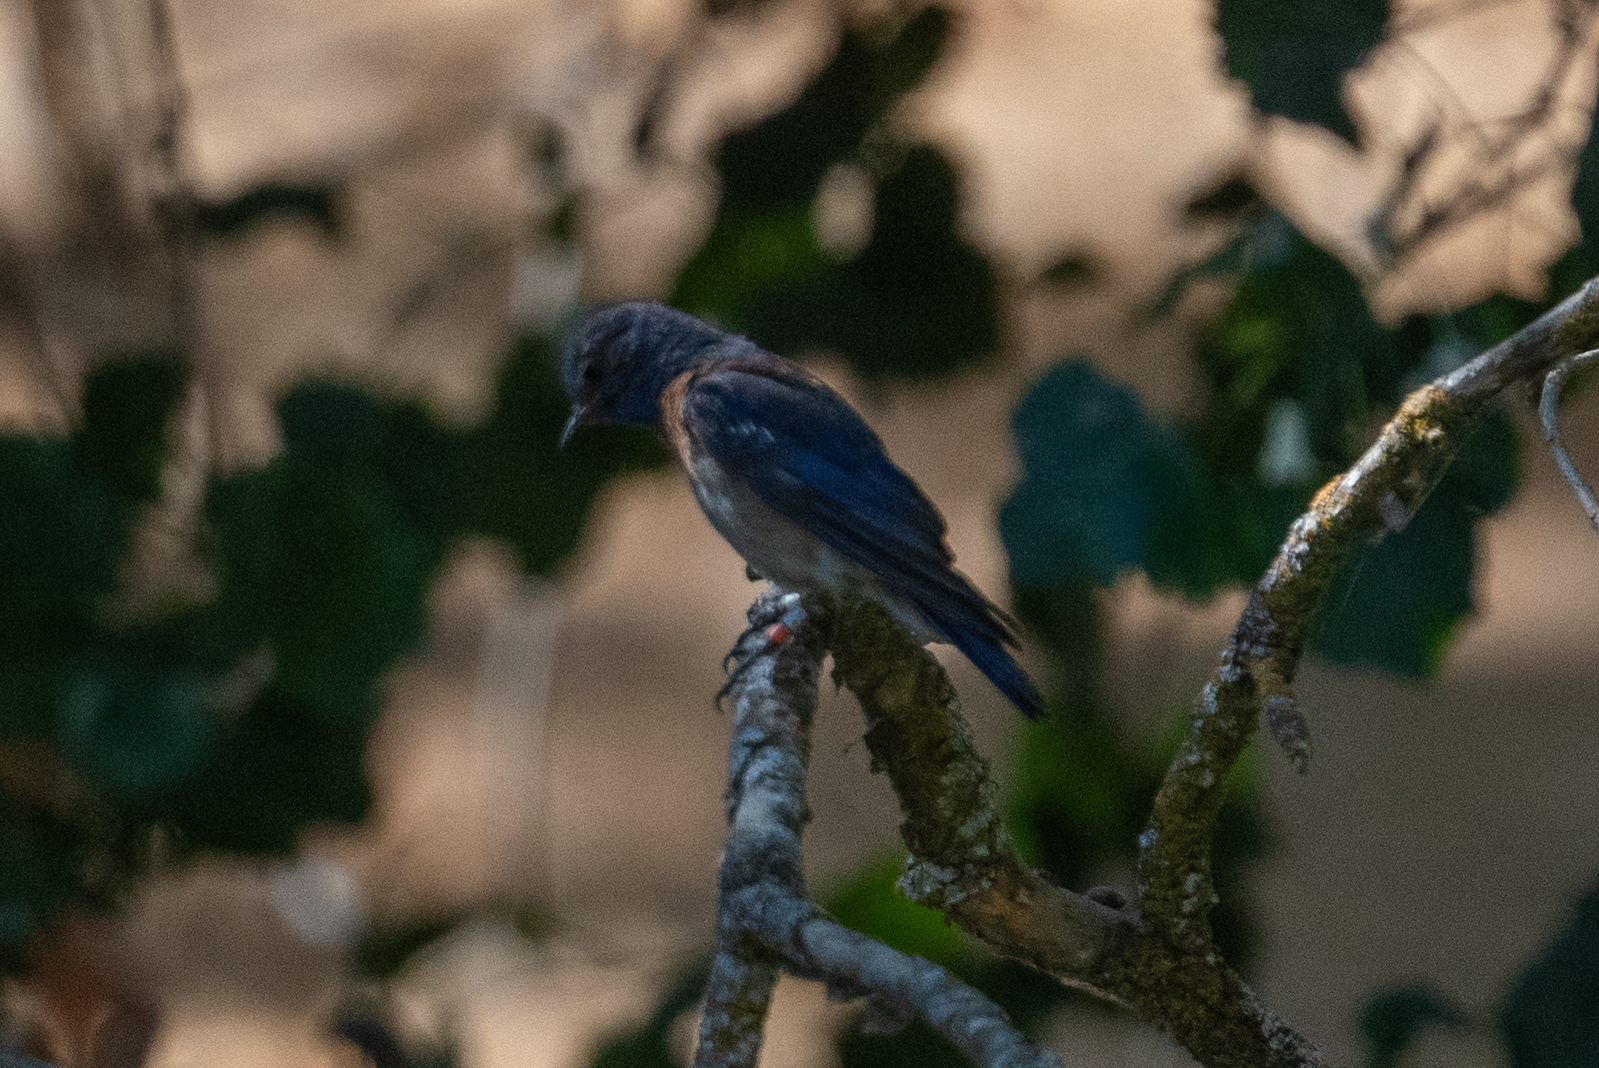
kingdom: Animalia
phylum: Chordata
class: Aves
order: Passeriformes
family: Turdidae
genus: Sialia
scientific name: Sialia mexicana
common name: Western bluebird
